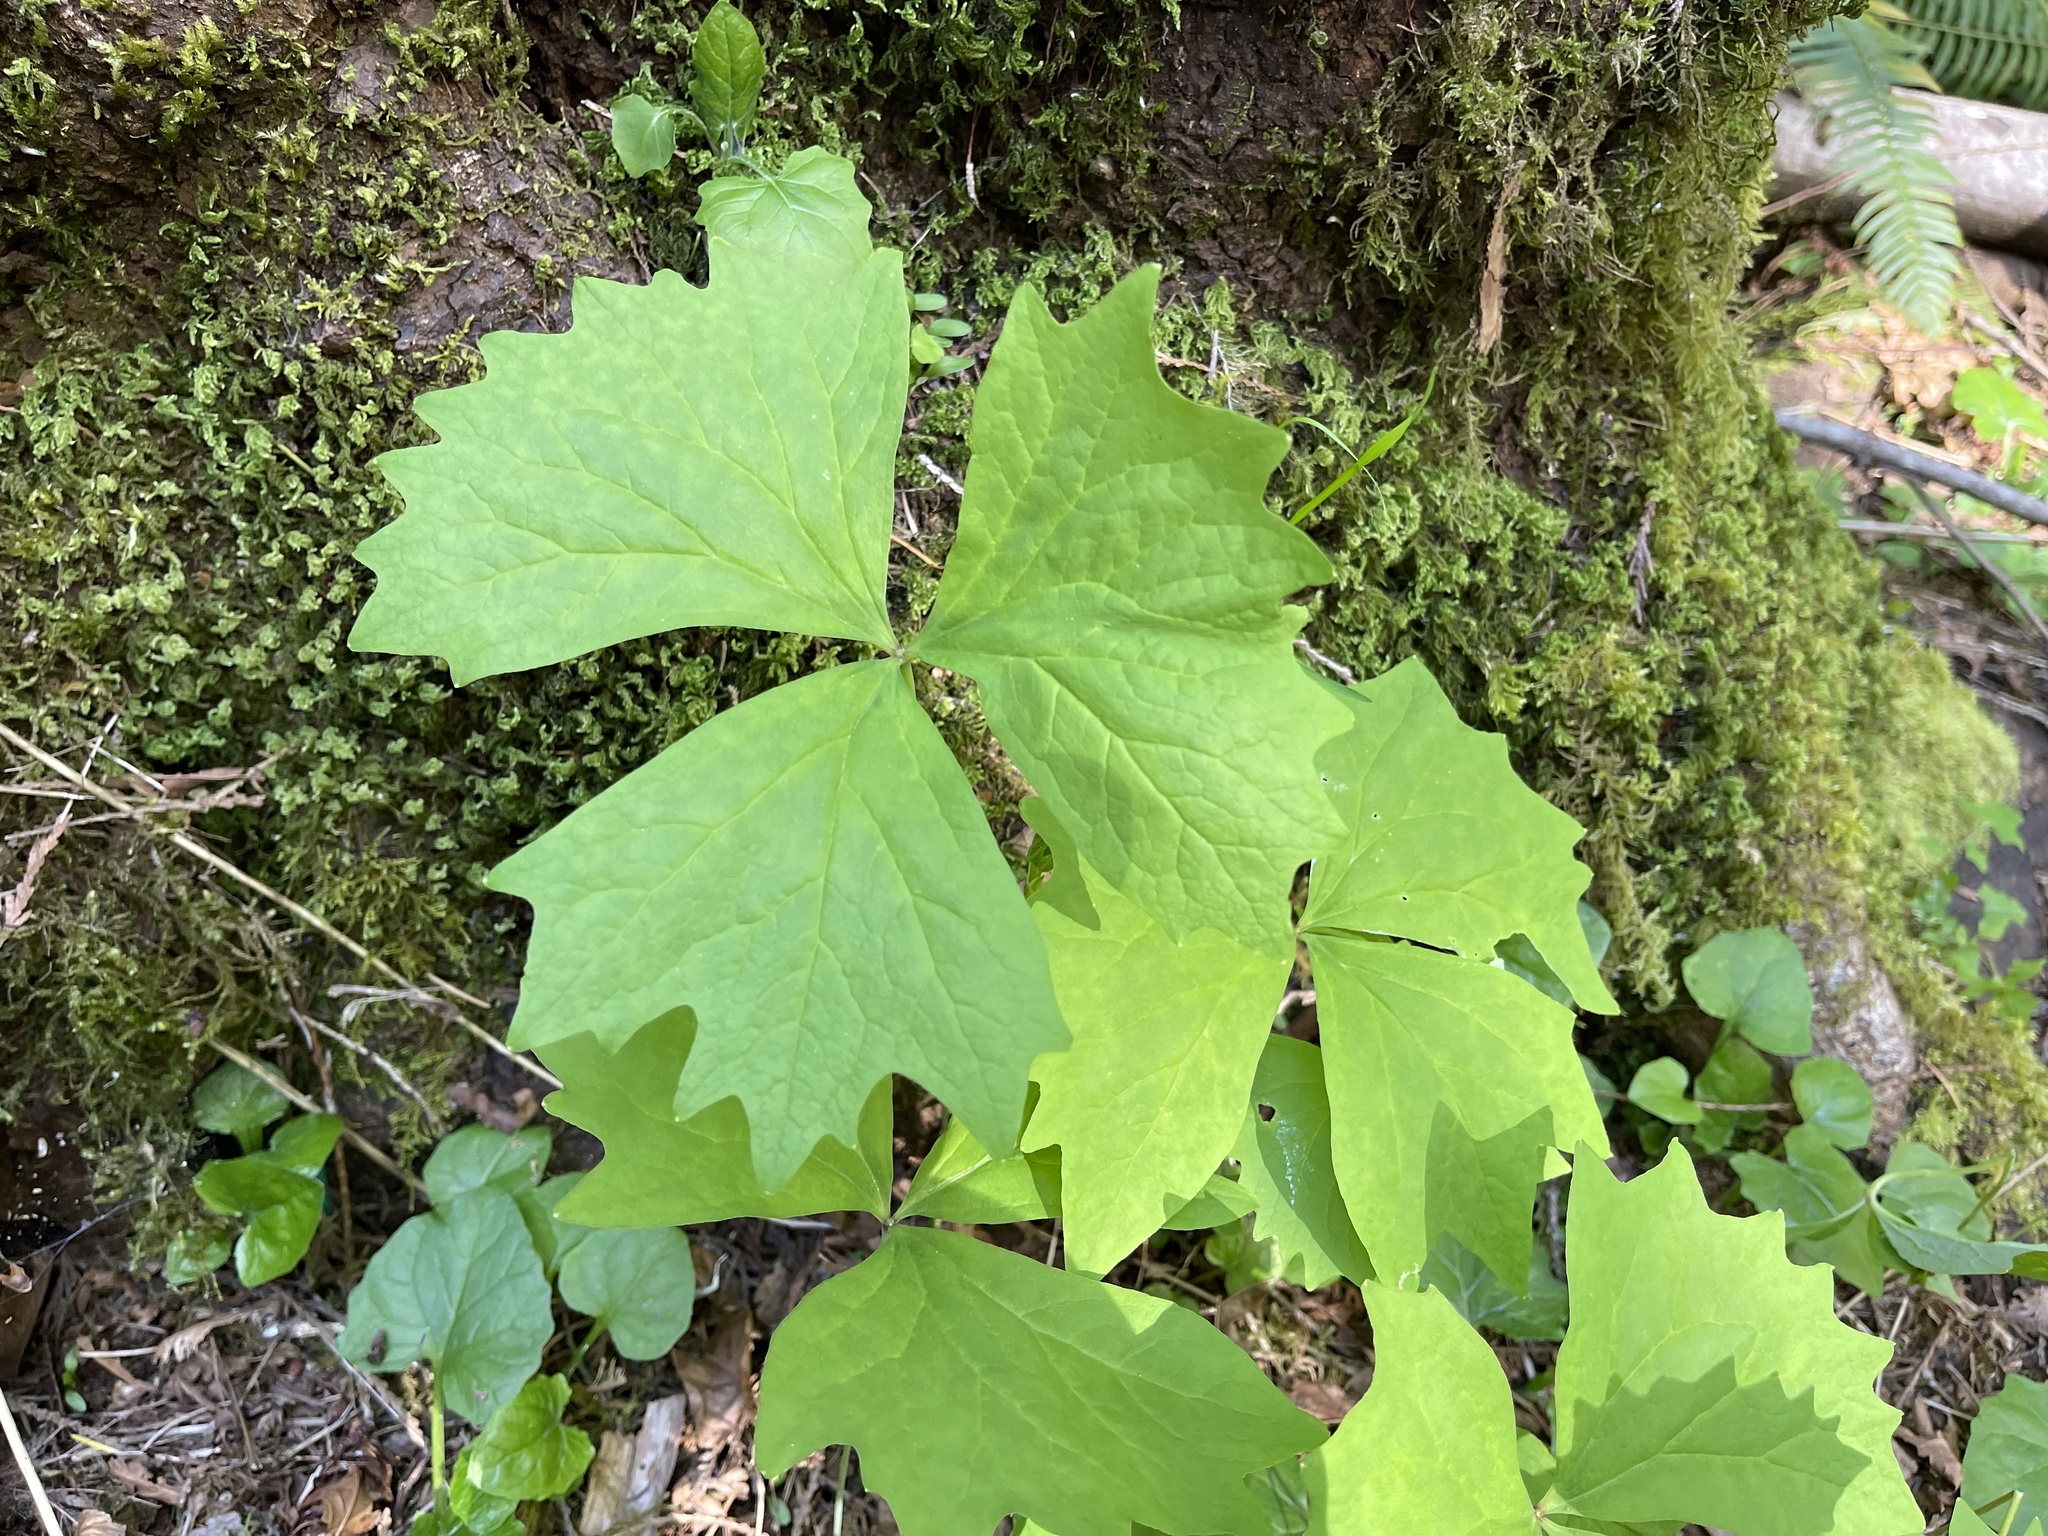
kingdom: Plantae
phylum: Tracheophyta
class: Magnoliopsida
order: Ranunculales
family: Berberidaceae
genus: Achlys
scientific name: Achlys triphylla
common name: Vanilla-leaf
